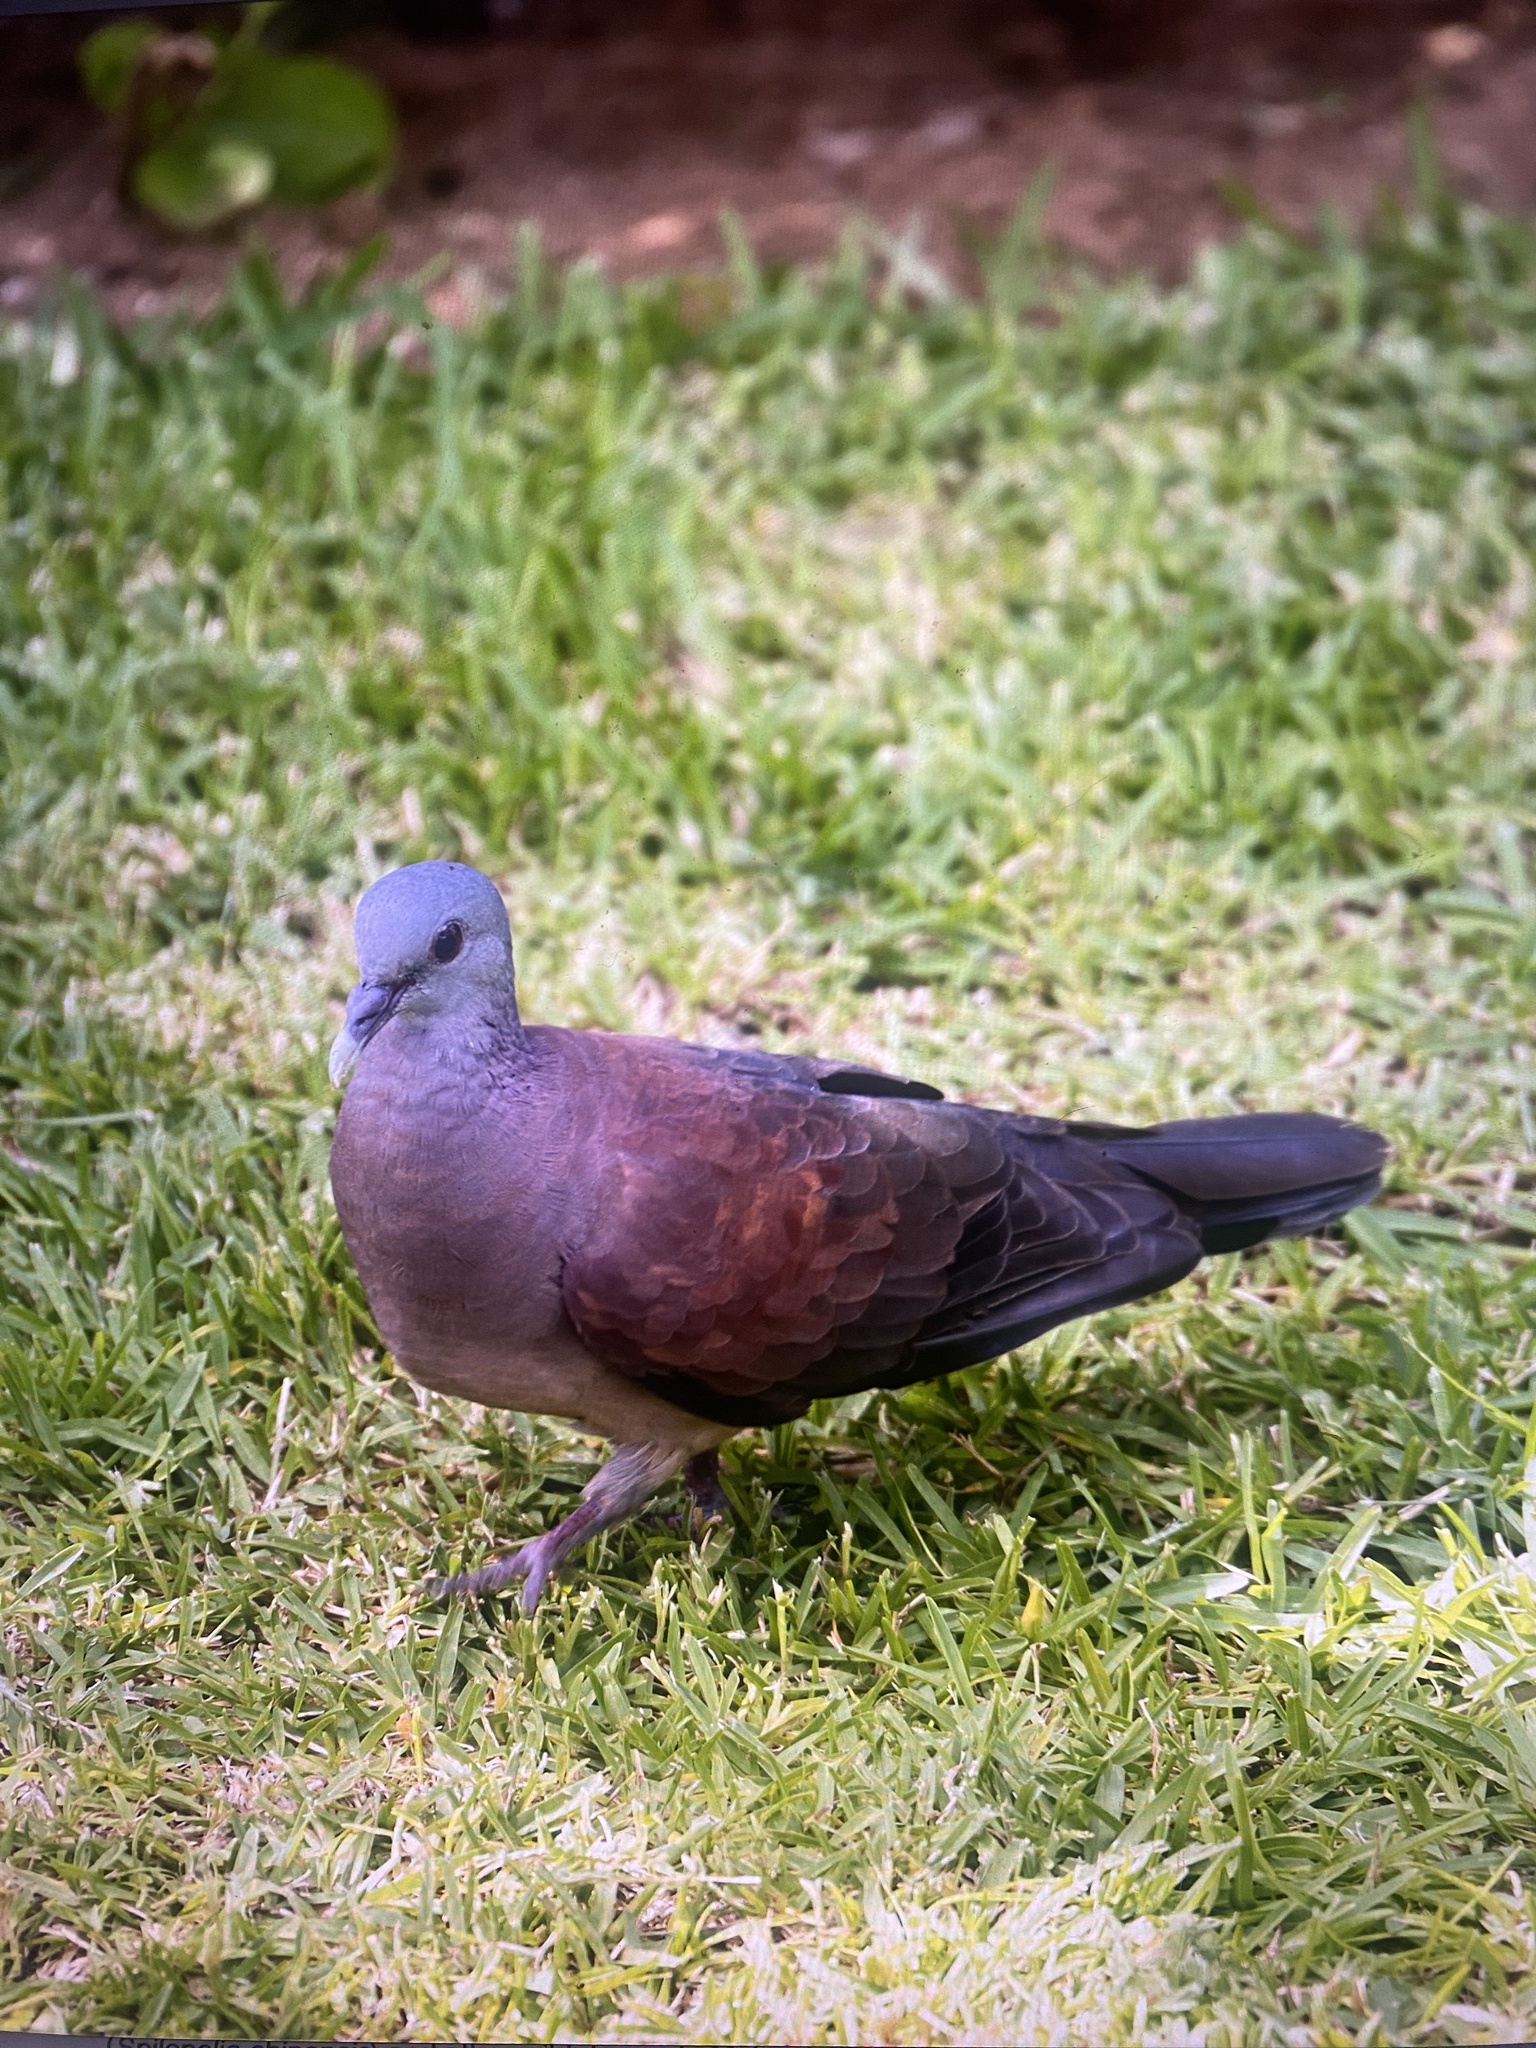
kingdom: Animalia
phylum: Chordata
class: Aves
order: Columbiformes
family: Columbidae
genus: Nesoenas
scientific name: Nesoenas picturatus
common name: Malagasy turtle dove
